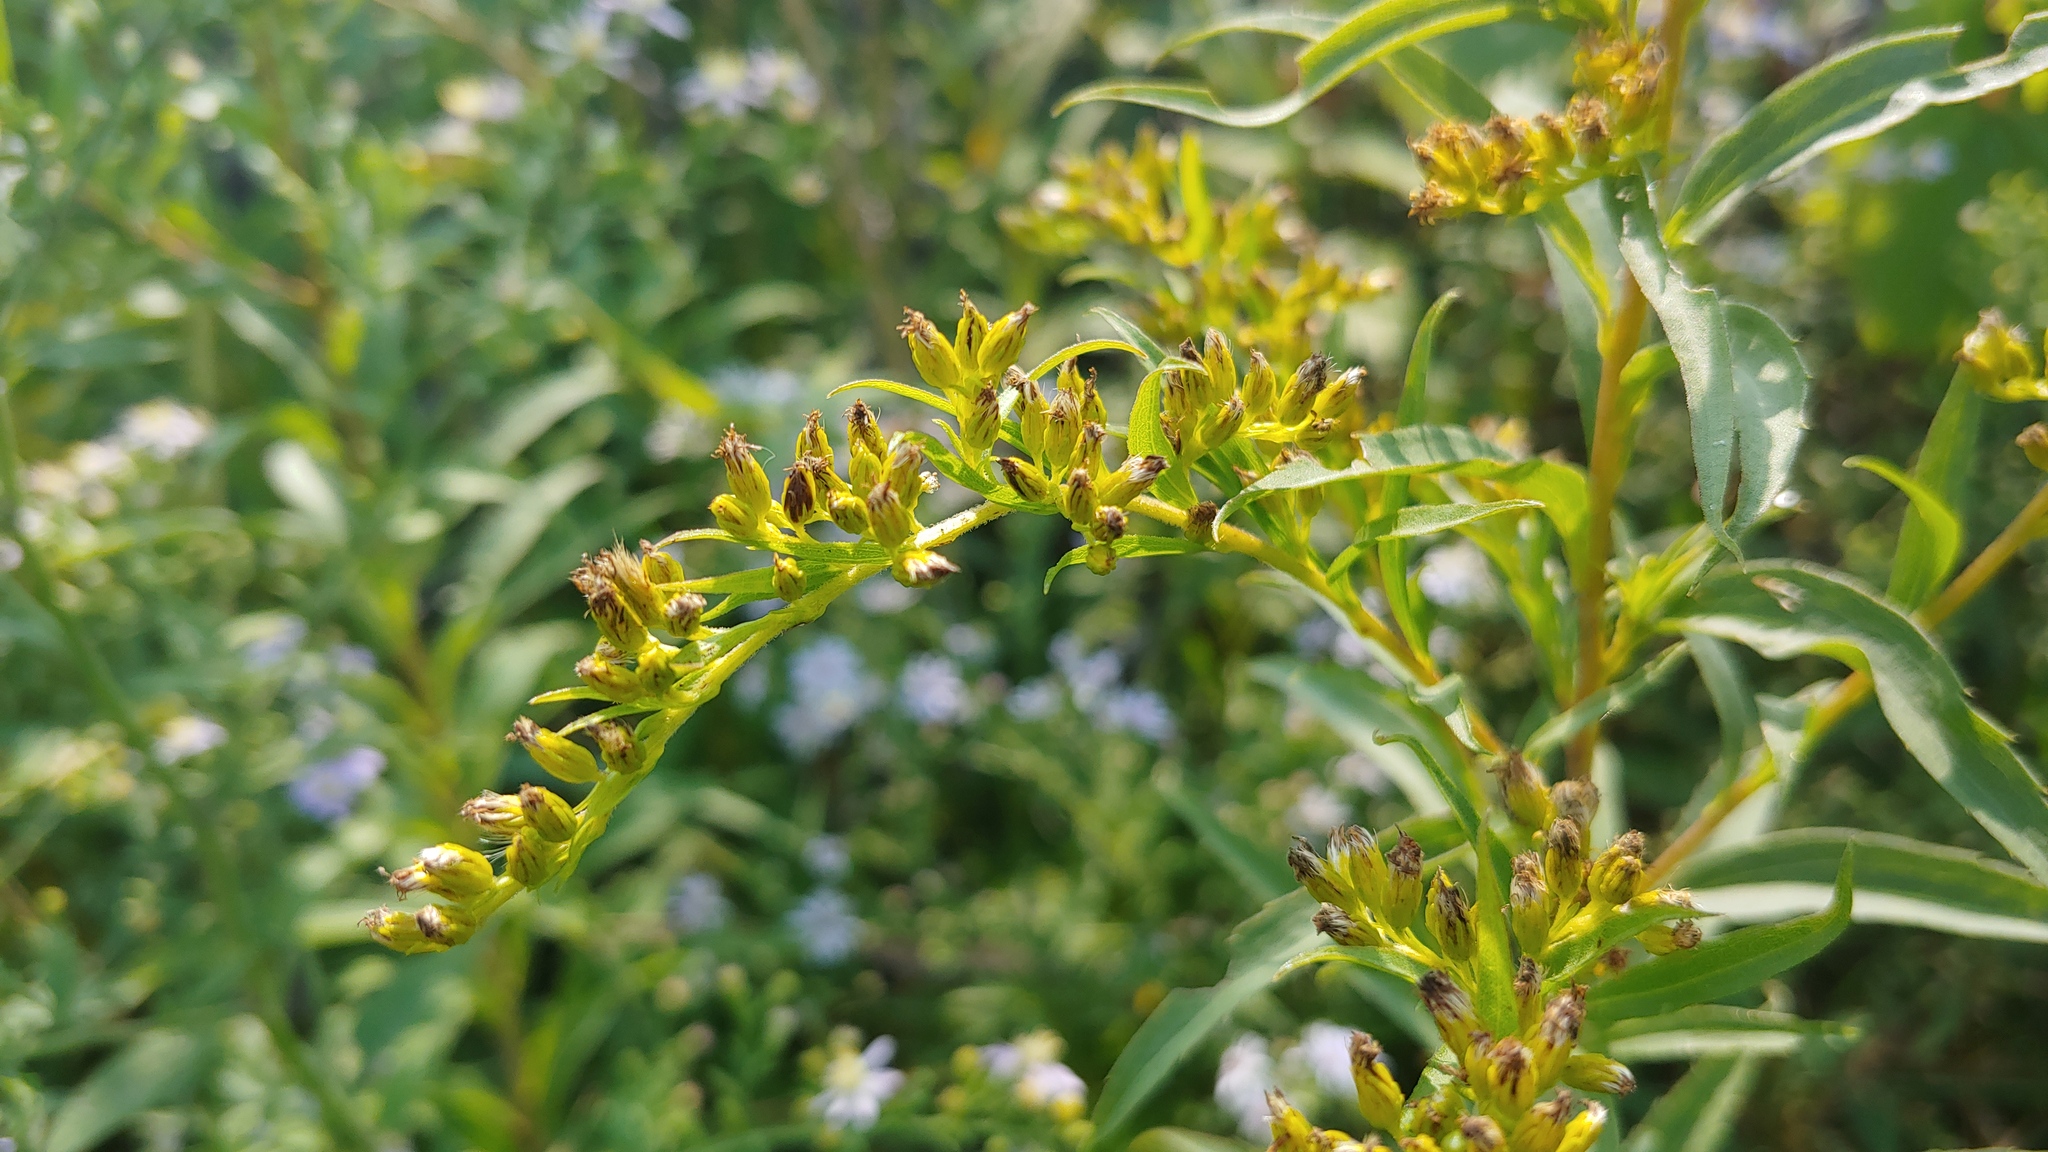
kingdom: Plantae
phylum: Tracheophyta
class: Magnoliopsida
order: Asterales
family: Asteraceae
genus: Solidago
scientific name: Solidago gigantea
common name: Giant goldenrod
